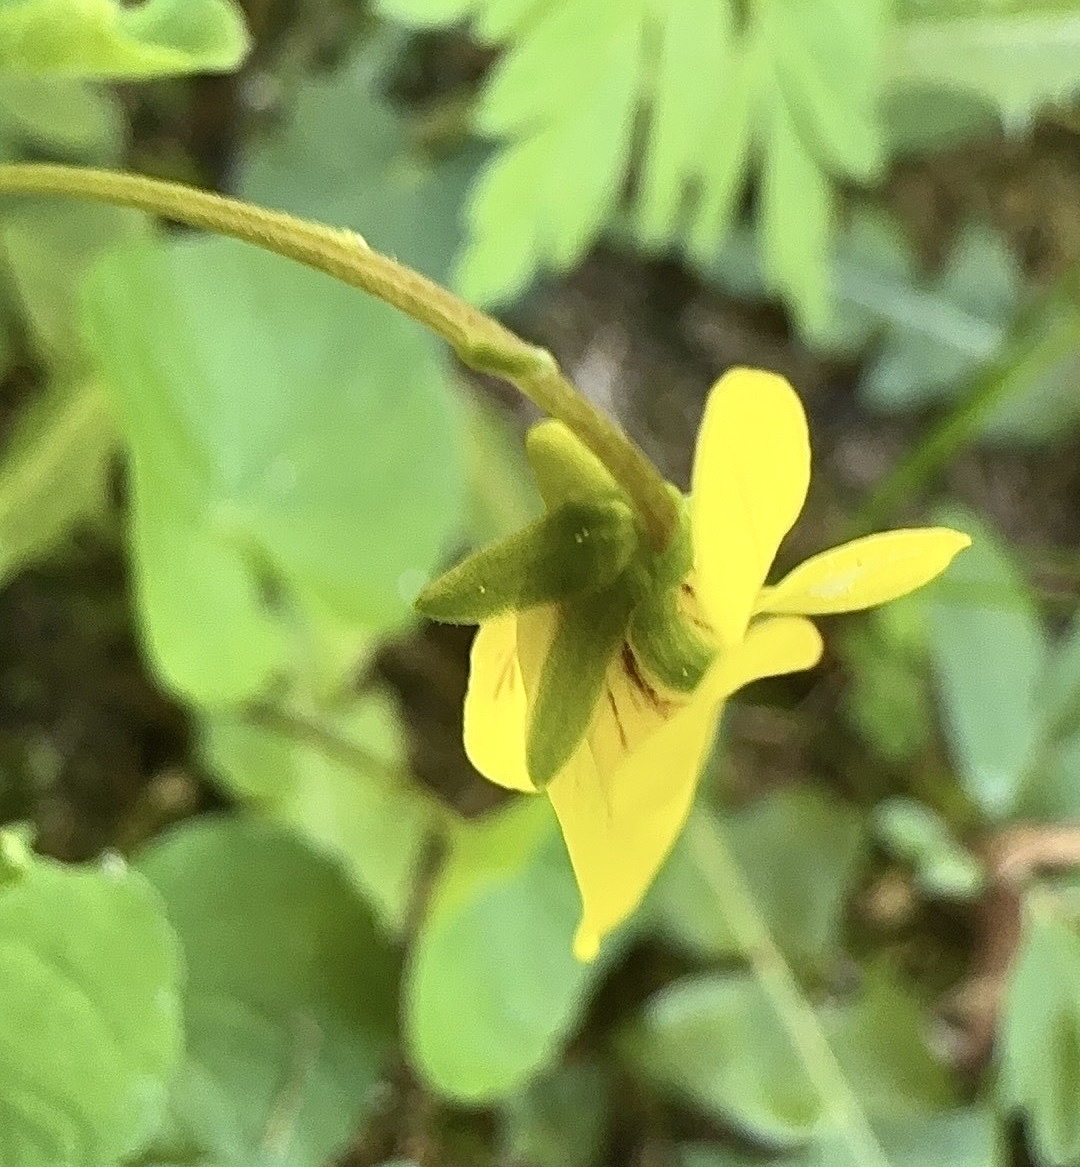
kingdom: Plantae
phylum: Tracheophyta
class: Magnoliopsida
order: Malpighiales
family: Violaceae
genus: Viola
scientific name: Viola biflora
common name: Alpine yellow violet
